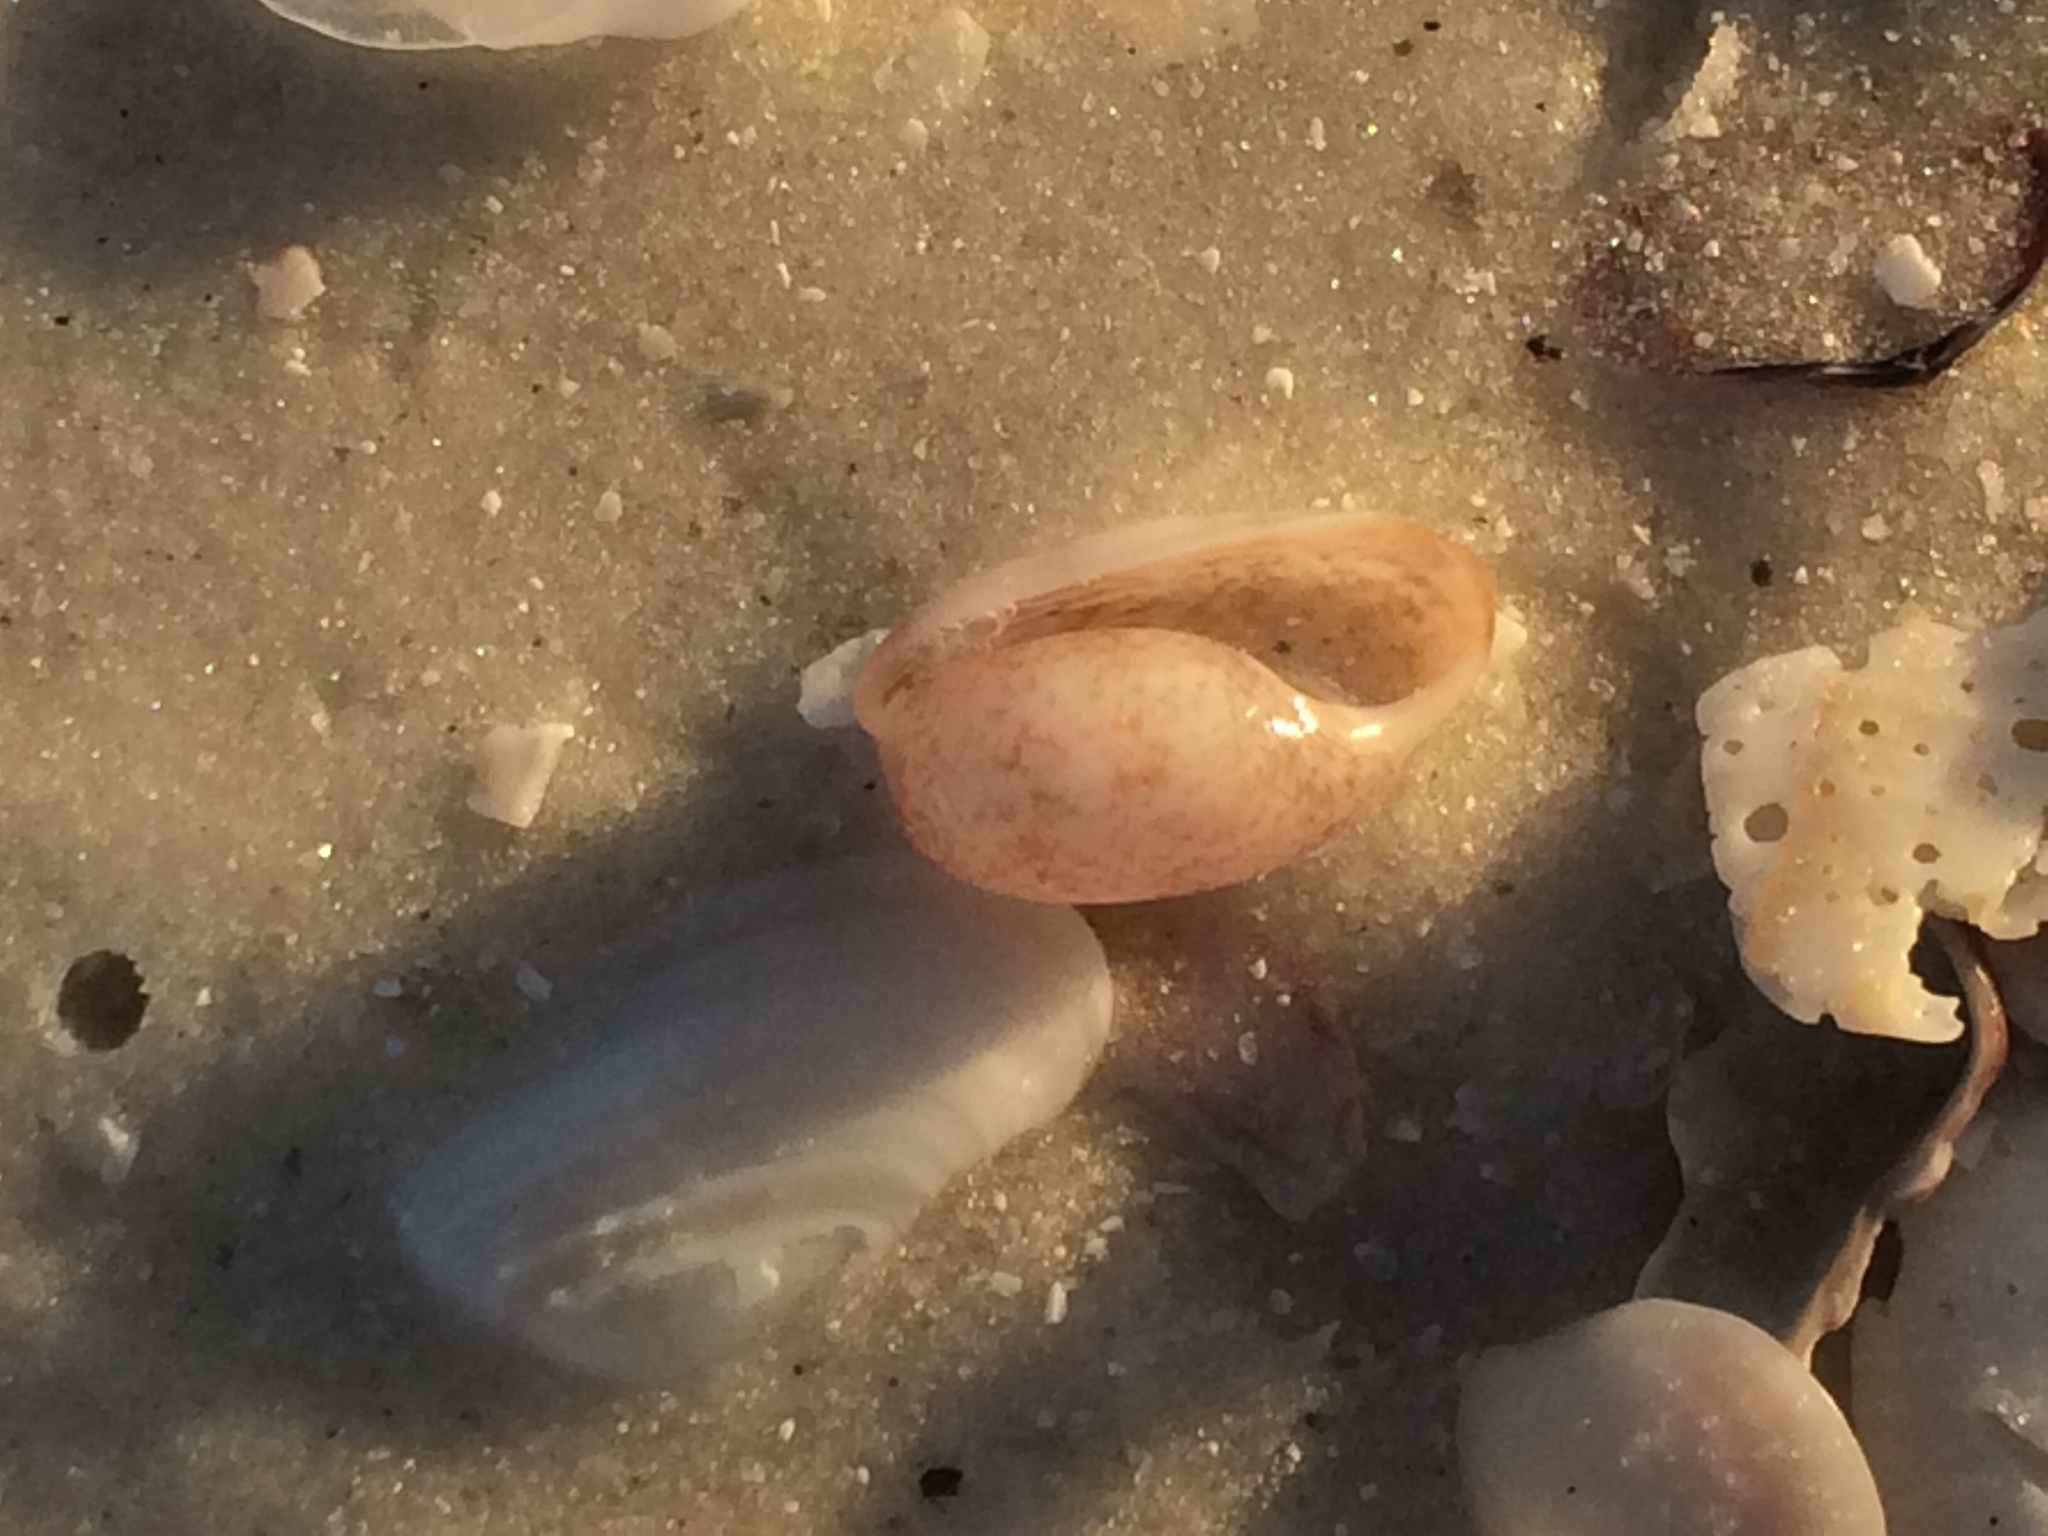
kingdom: Animalia
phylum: Mollusca
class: Gastropoda
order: Cephalaspidea
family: Bullidae
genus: Bulla
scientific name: Bulla occidentalis
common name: Common west-indian bubble
